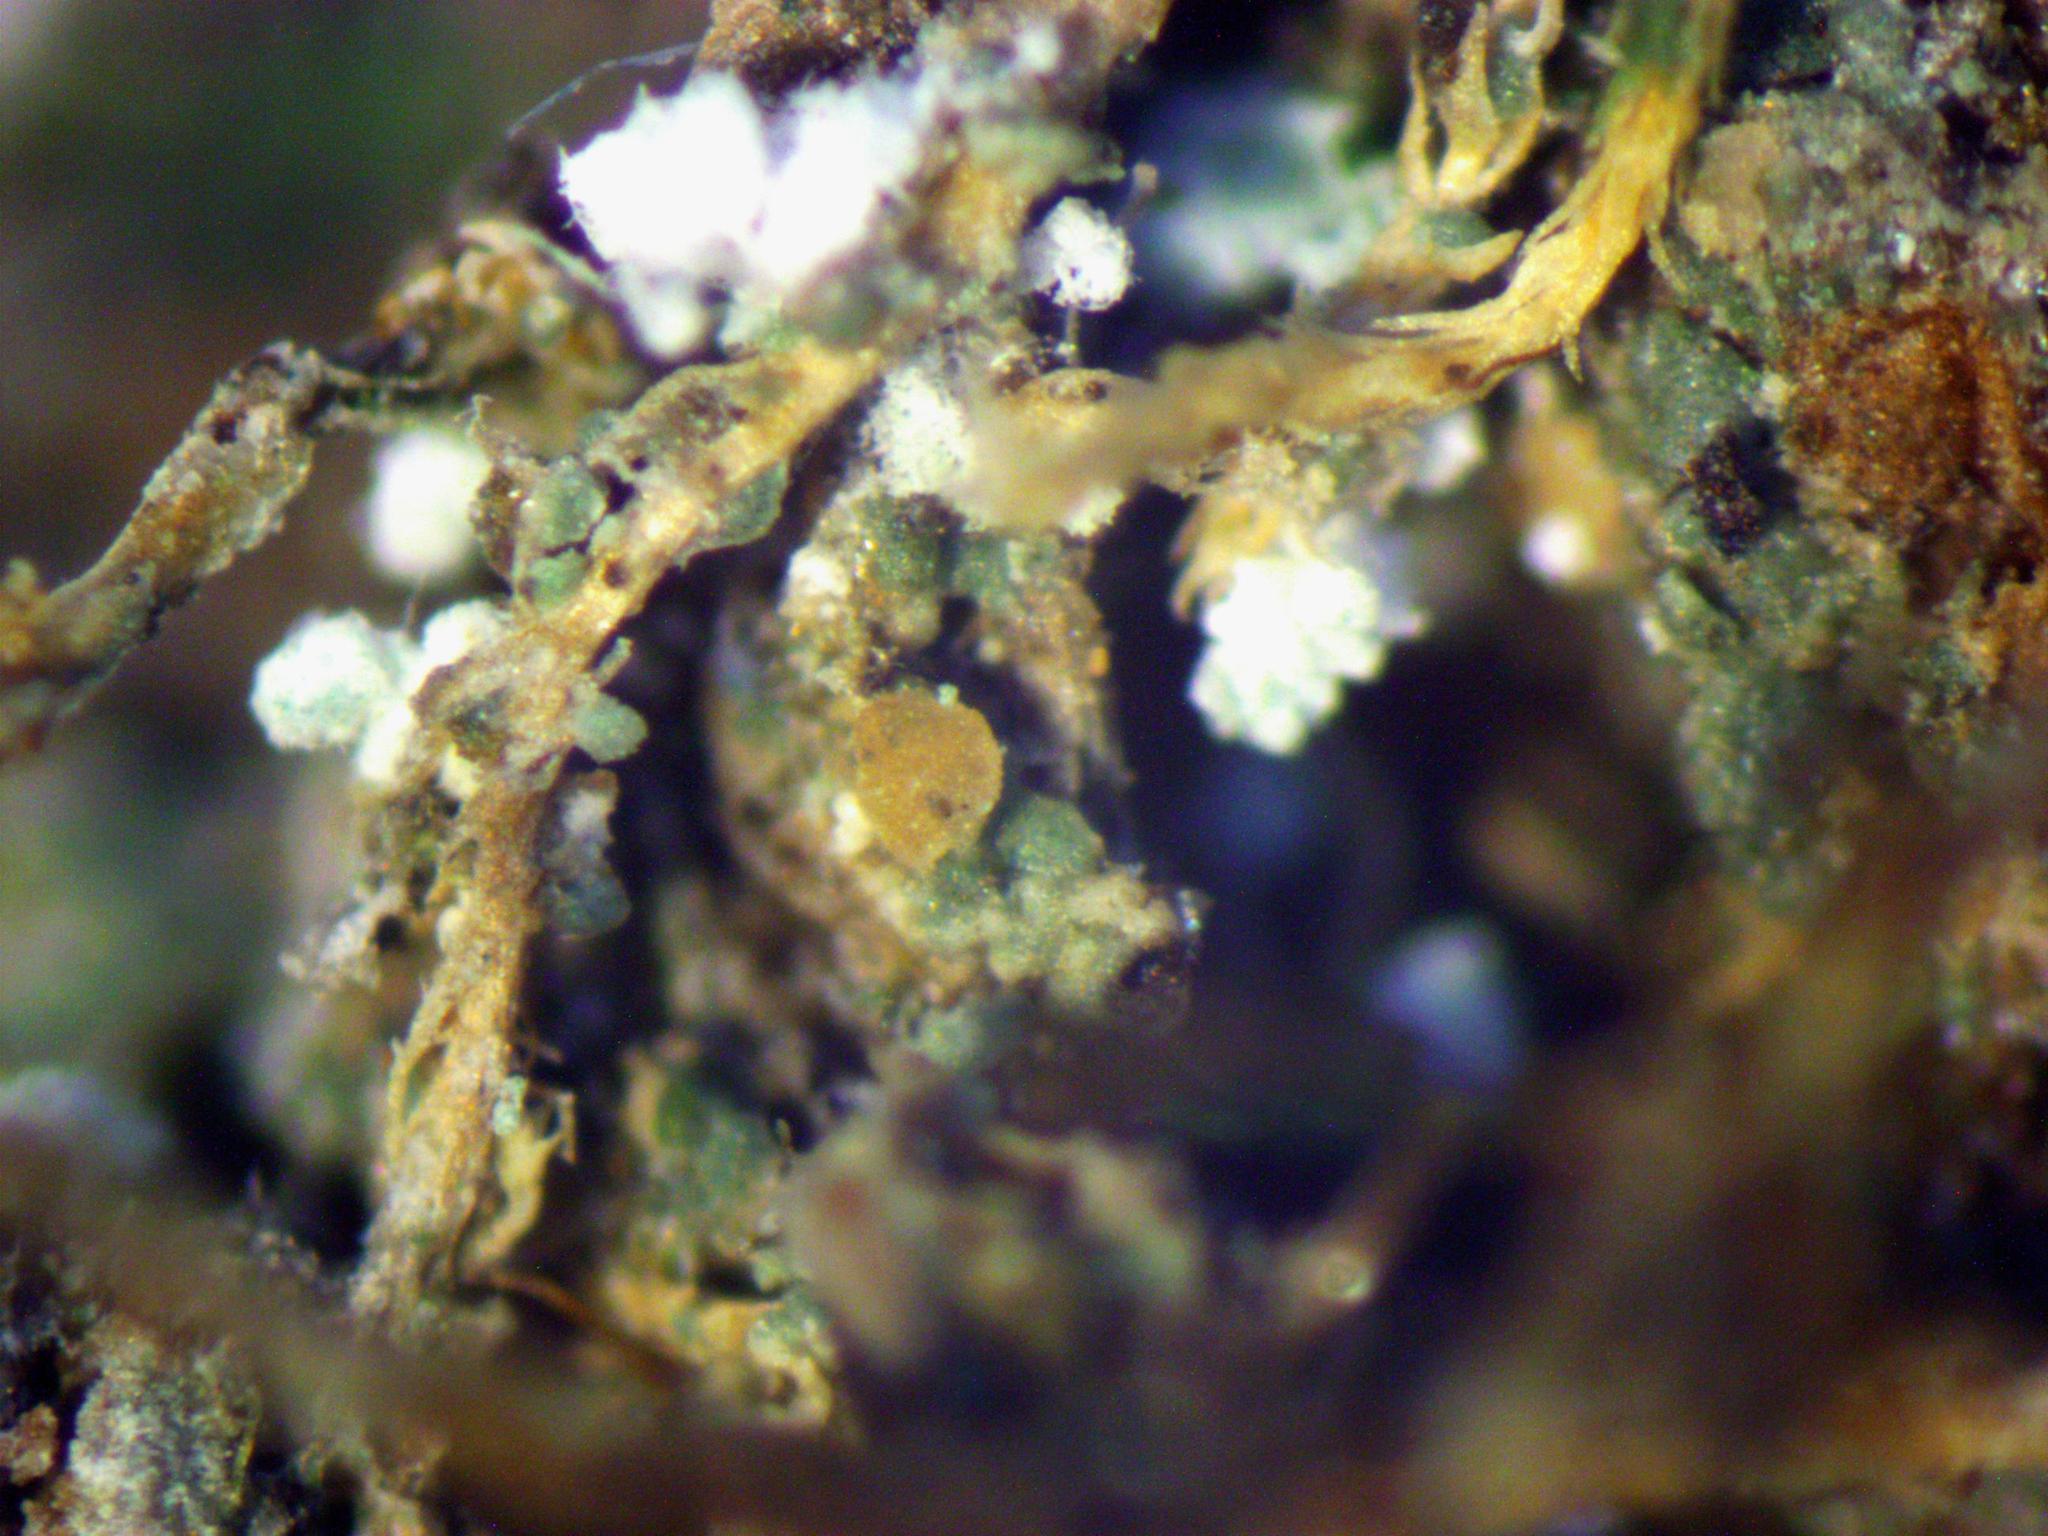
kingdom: Fungi
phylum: Ascomycota
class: Lecanoromycetes
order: Lecanorales
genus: Biatoridium
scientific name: Biatoridium monasteriense
